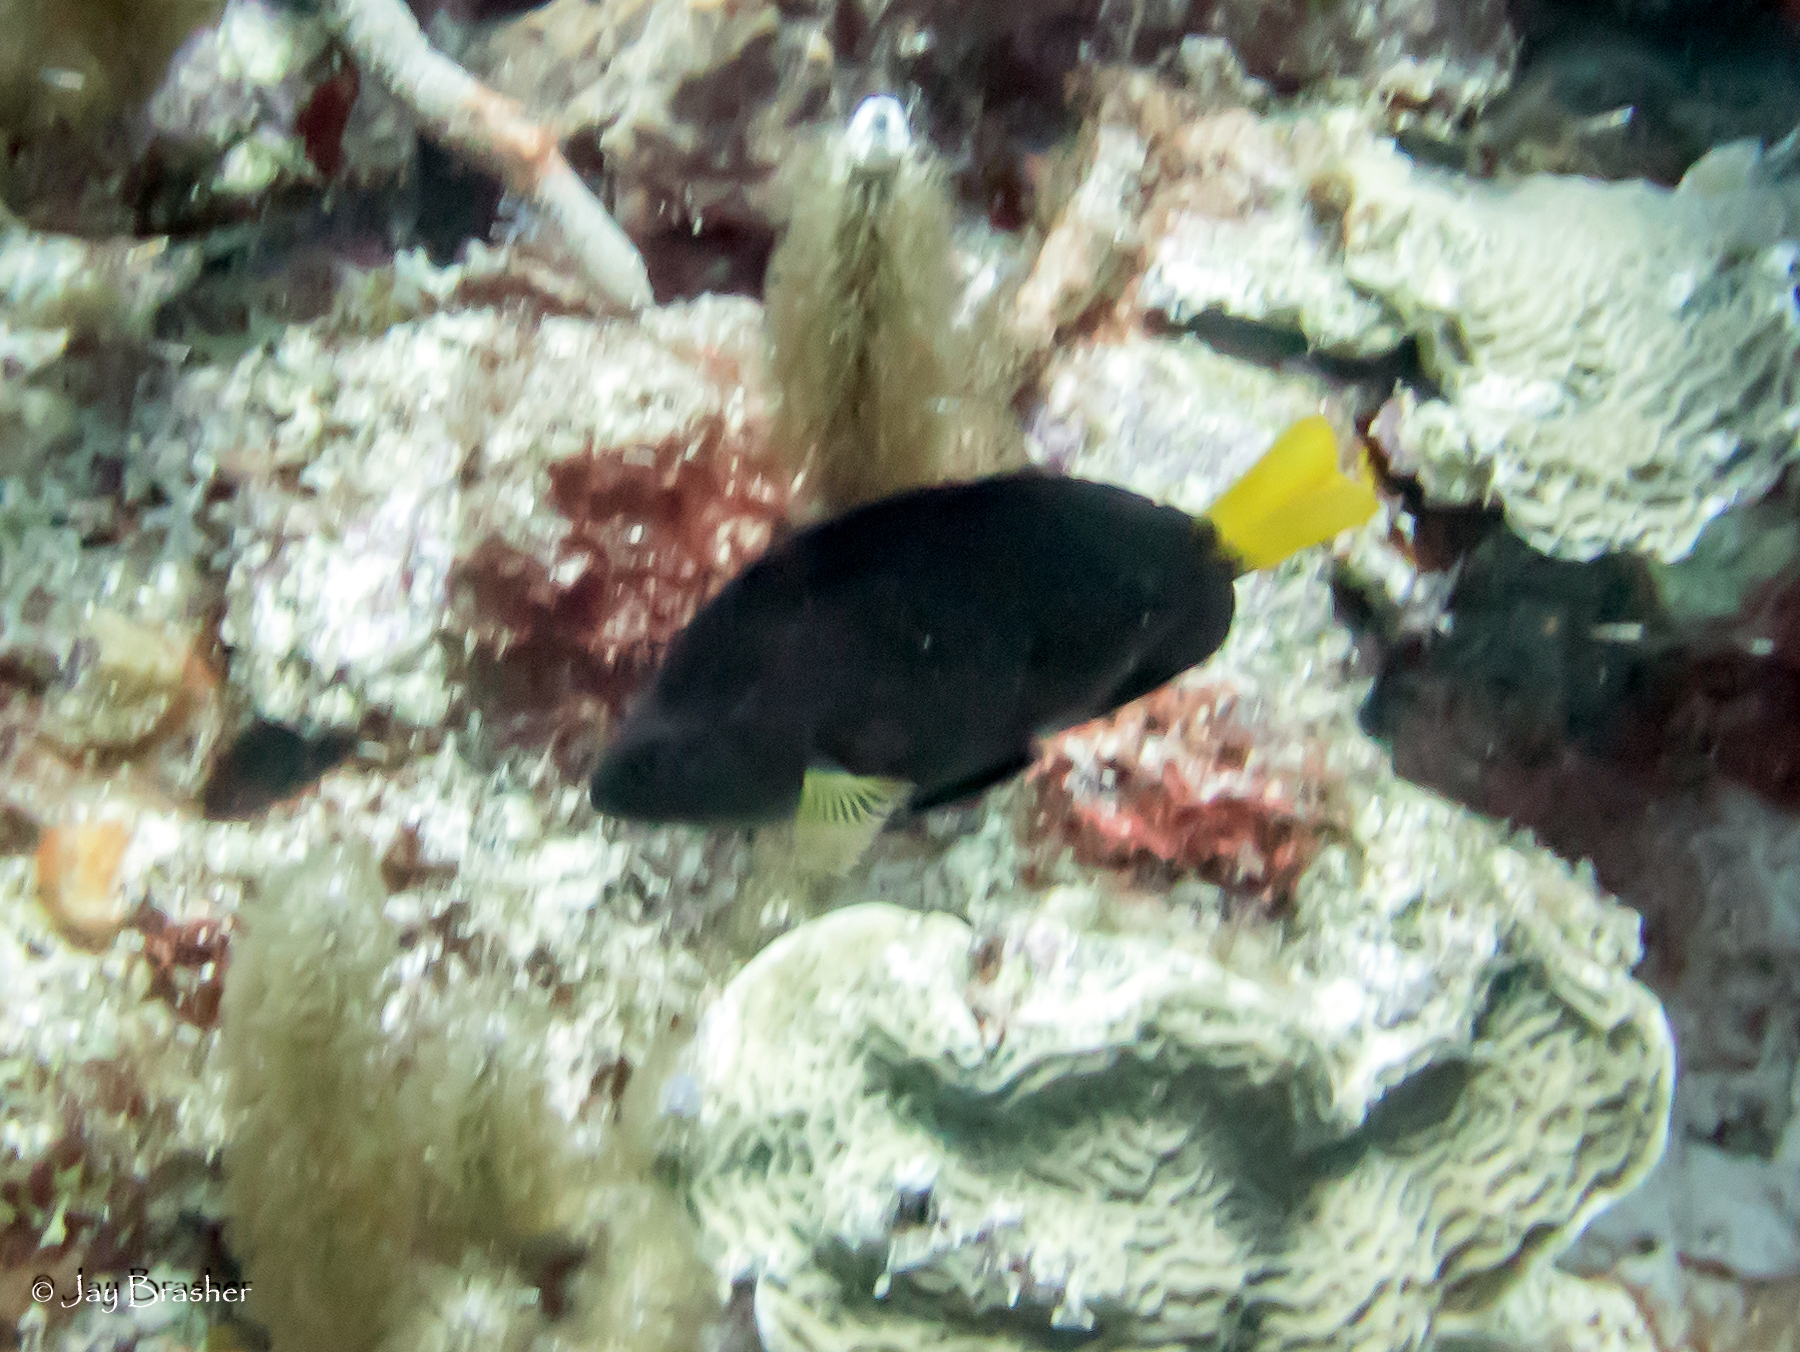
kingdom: Animalia
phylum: Chordata
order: Perciformes
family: Serranidae
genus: Hypoplectrus
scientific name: Hypoplectrus chlorurus
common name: Yellowtail hamlet
